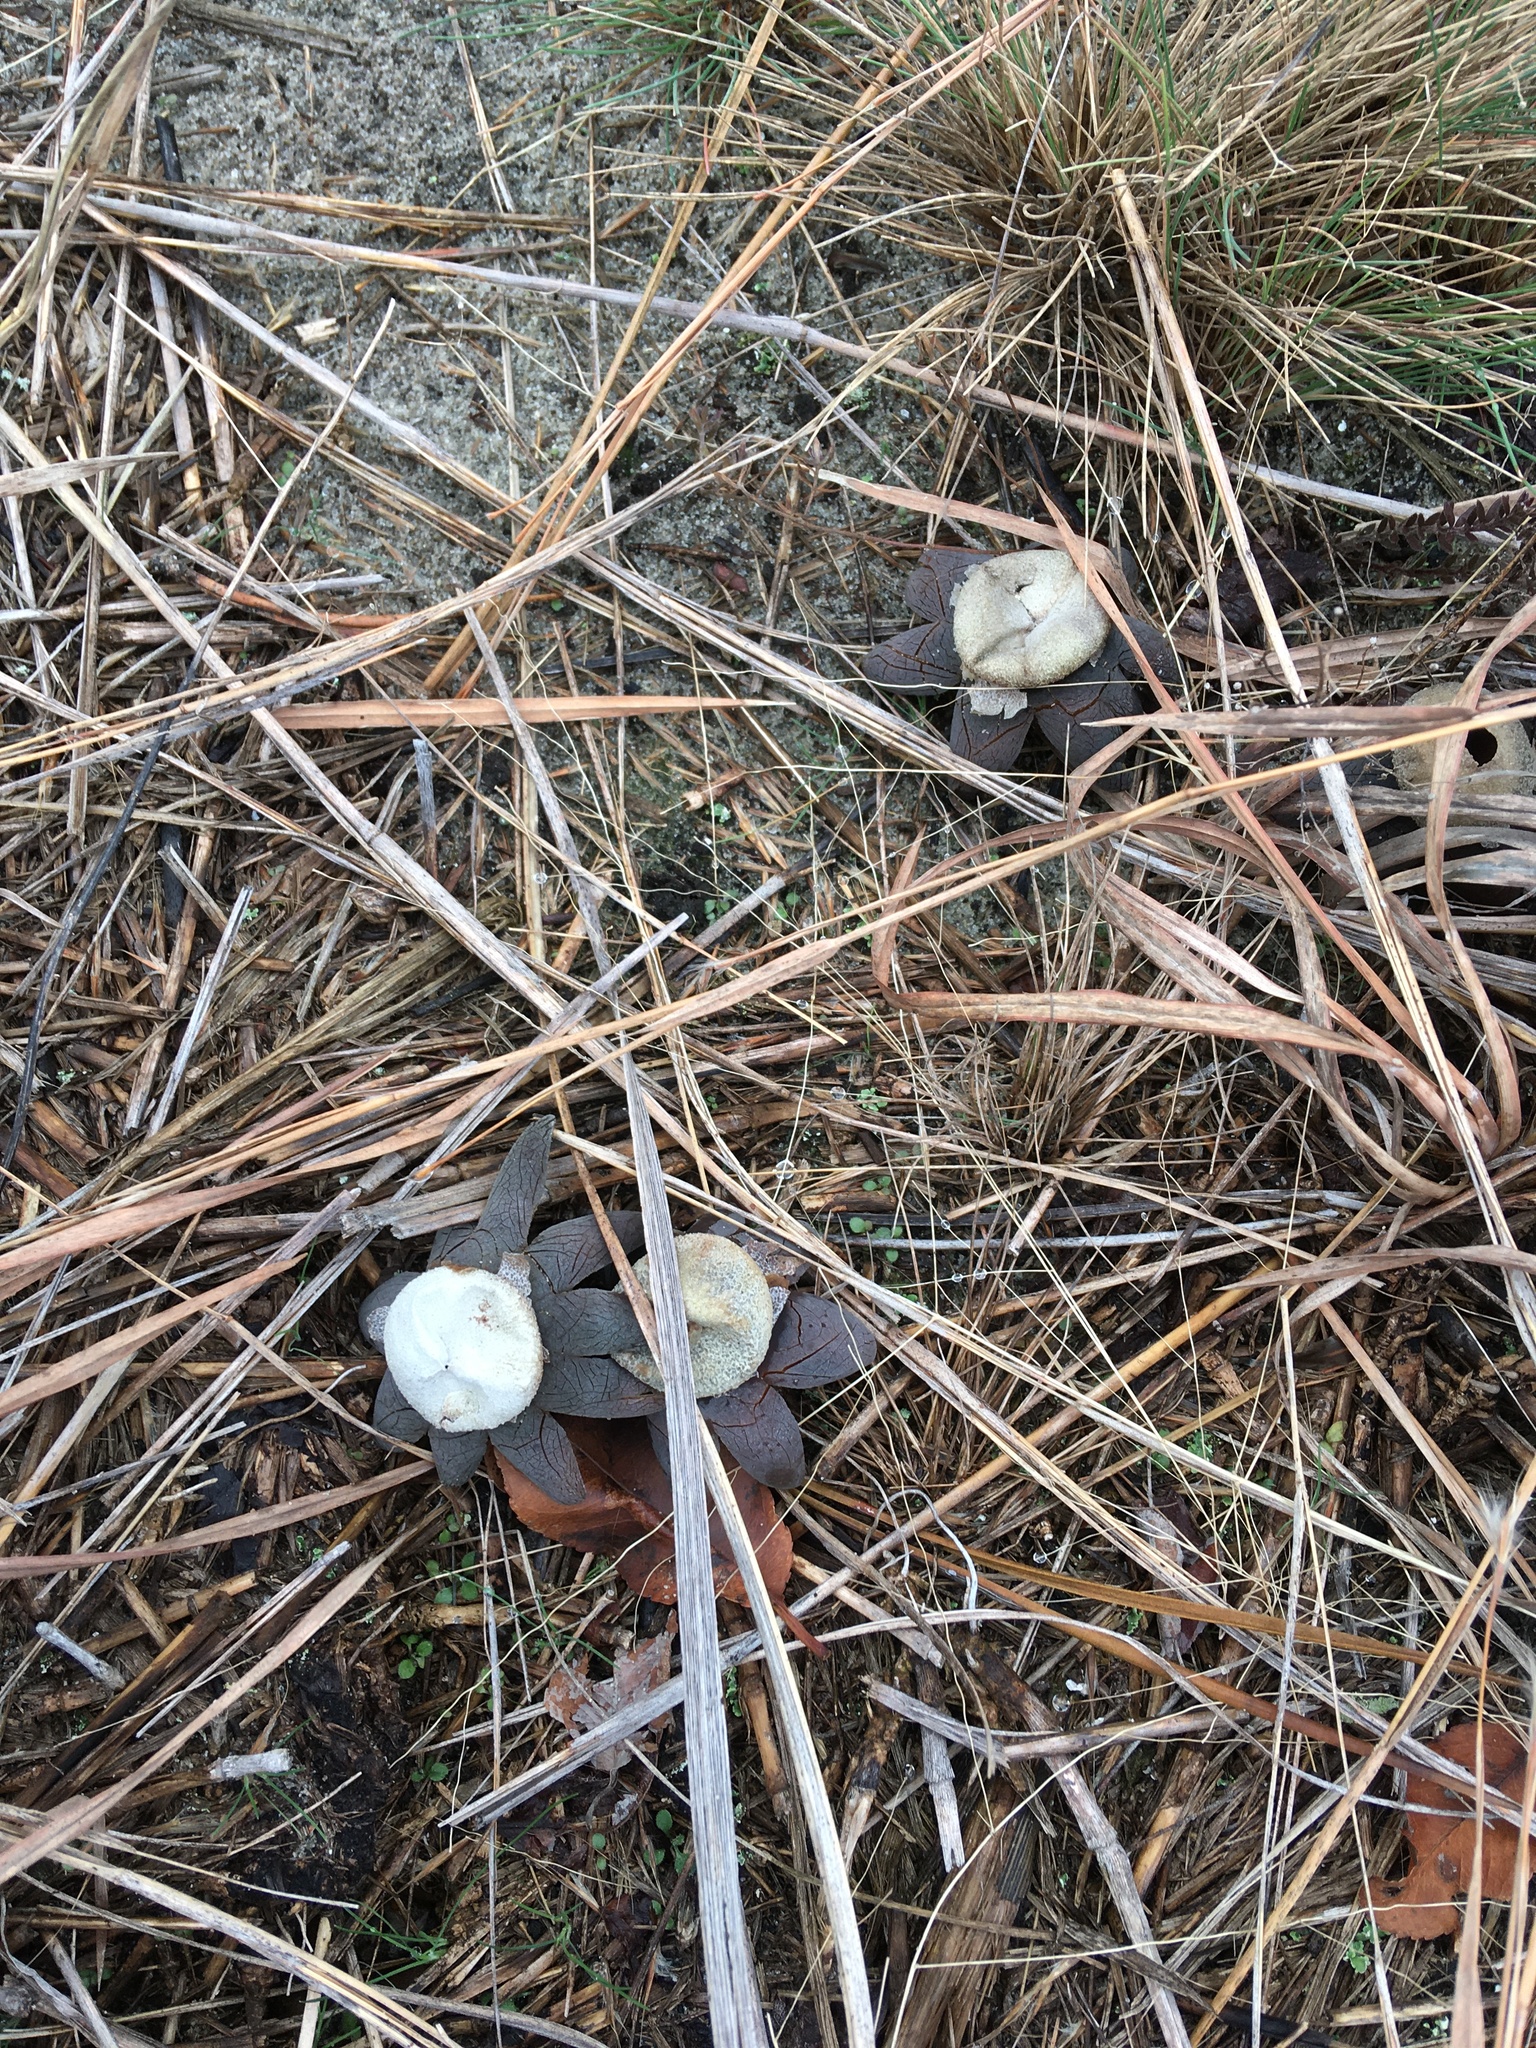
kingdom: Fungi
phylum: Basidiomycota
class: Agaricomycetes
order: Boletales
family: Diplocystidiaceae
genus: Astraeus
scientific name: Astraeus hygrometricus
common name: Barometer earthstar
